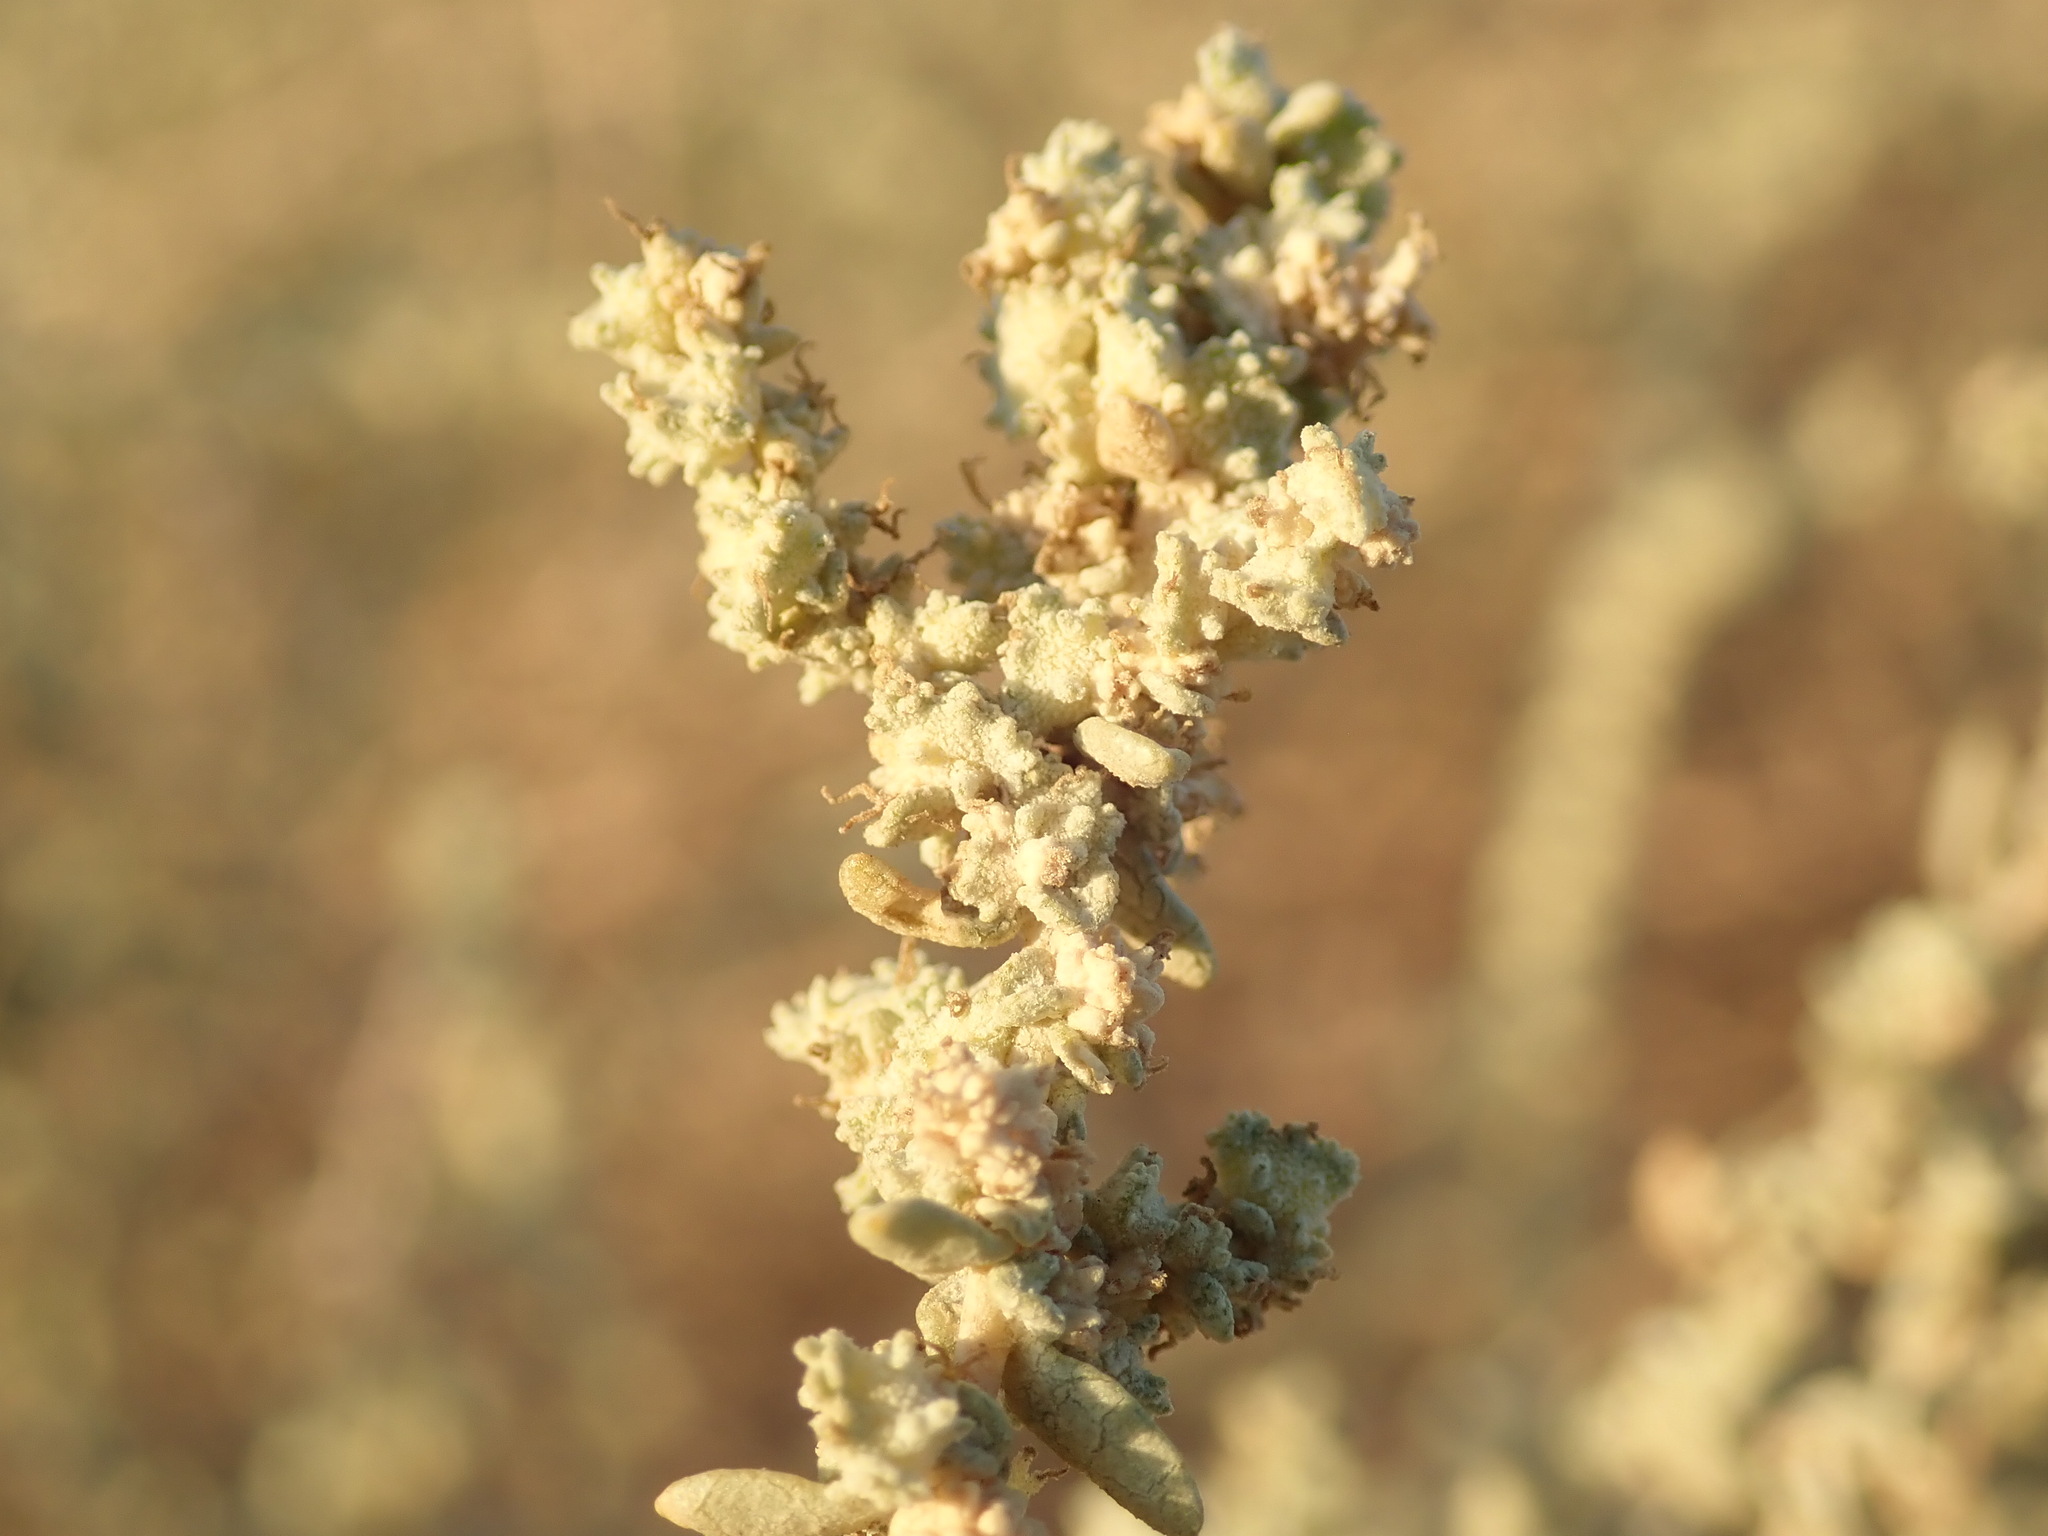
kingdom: Plantae
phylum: Tracheophyta
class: Magnoliopsida
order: Caryophyllales
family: Amaranthaceae
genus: Atriplex
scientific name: Atriplex polycarpa
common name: Desert saltbush
